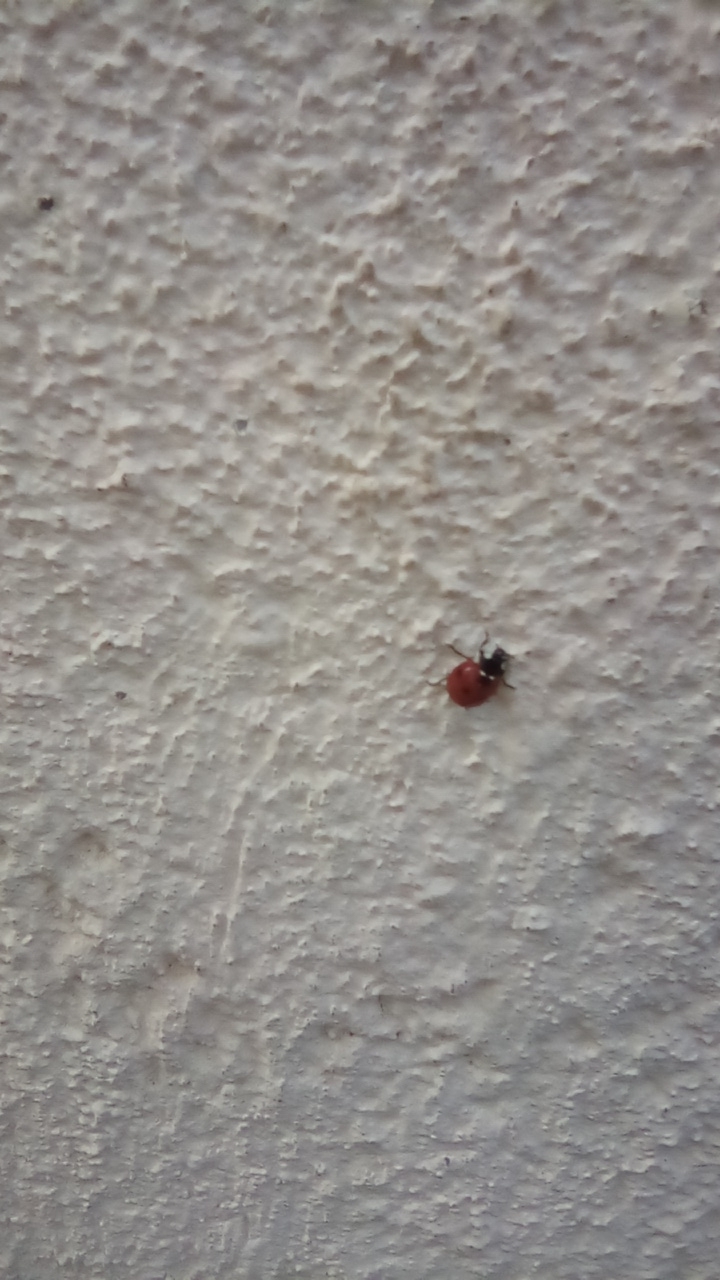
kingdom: Animalia
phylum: Arthropoda
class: Insecta
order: Coleoptera
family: Coccinellidae
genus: Coccinella
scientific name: Coccinella septempunctata
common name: Sevenspotted lady beetle
